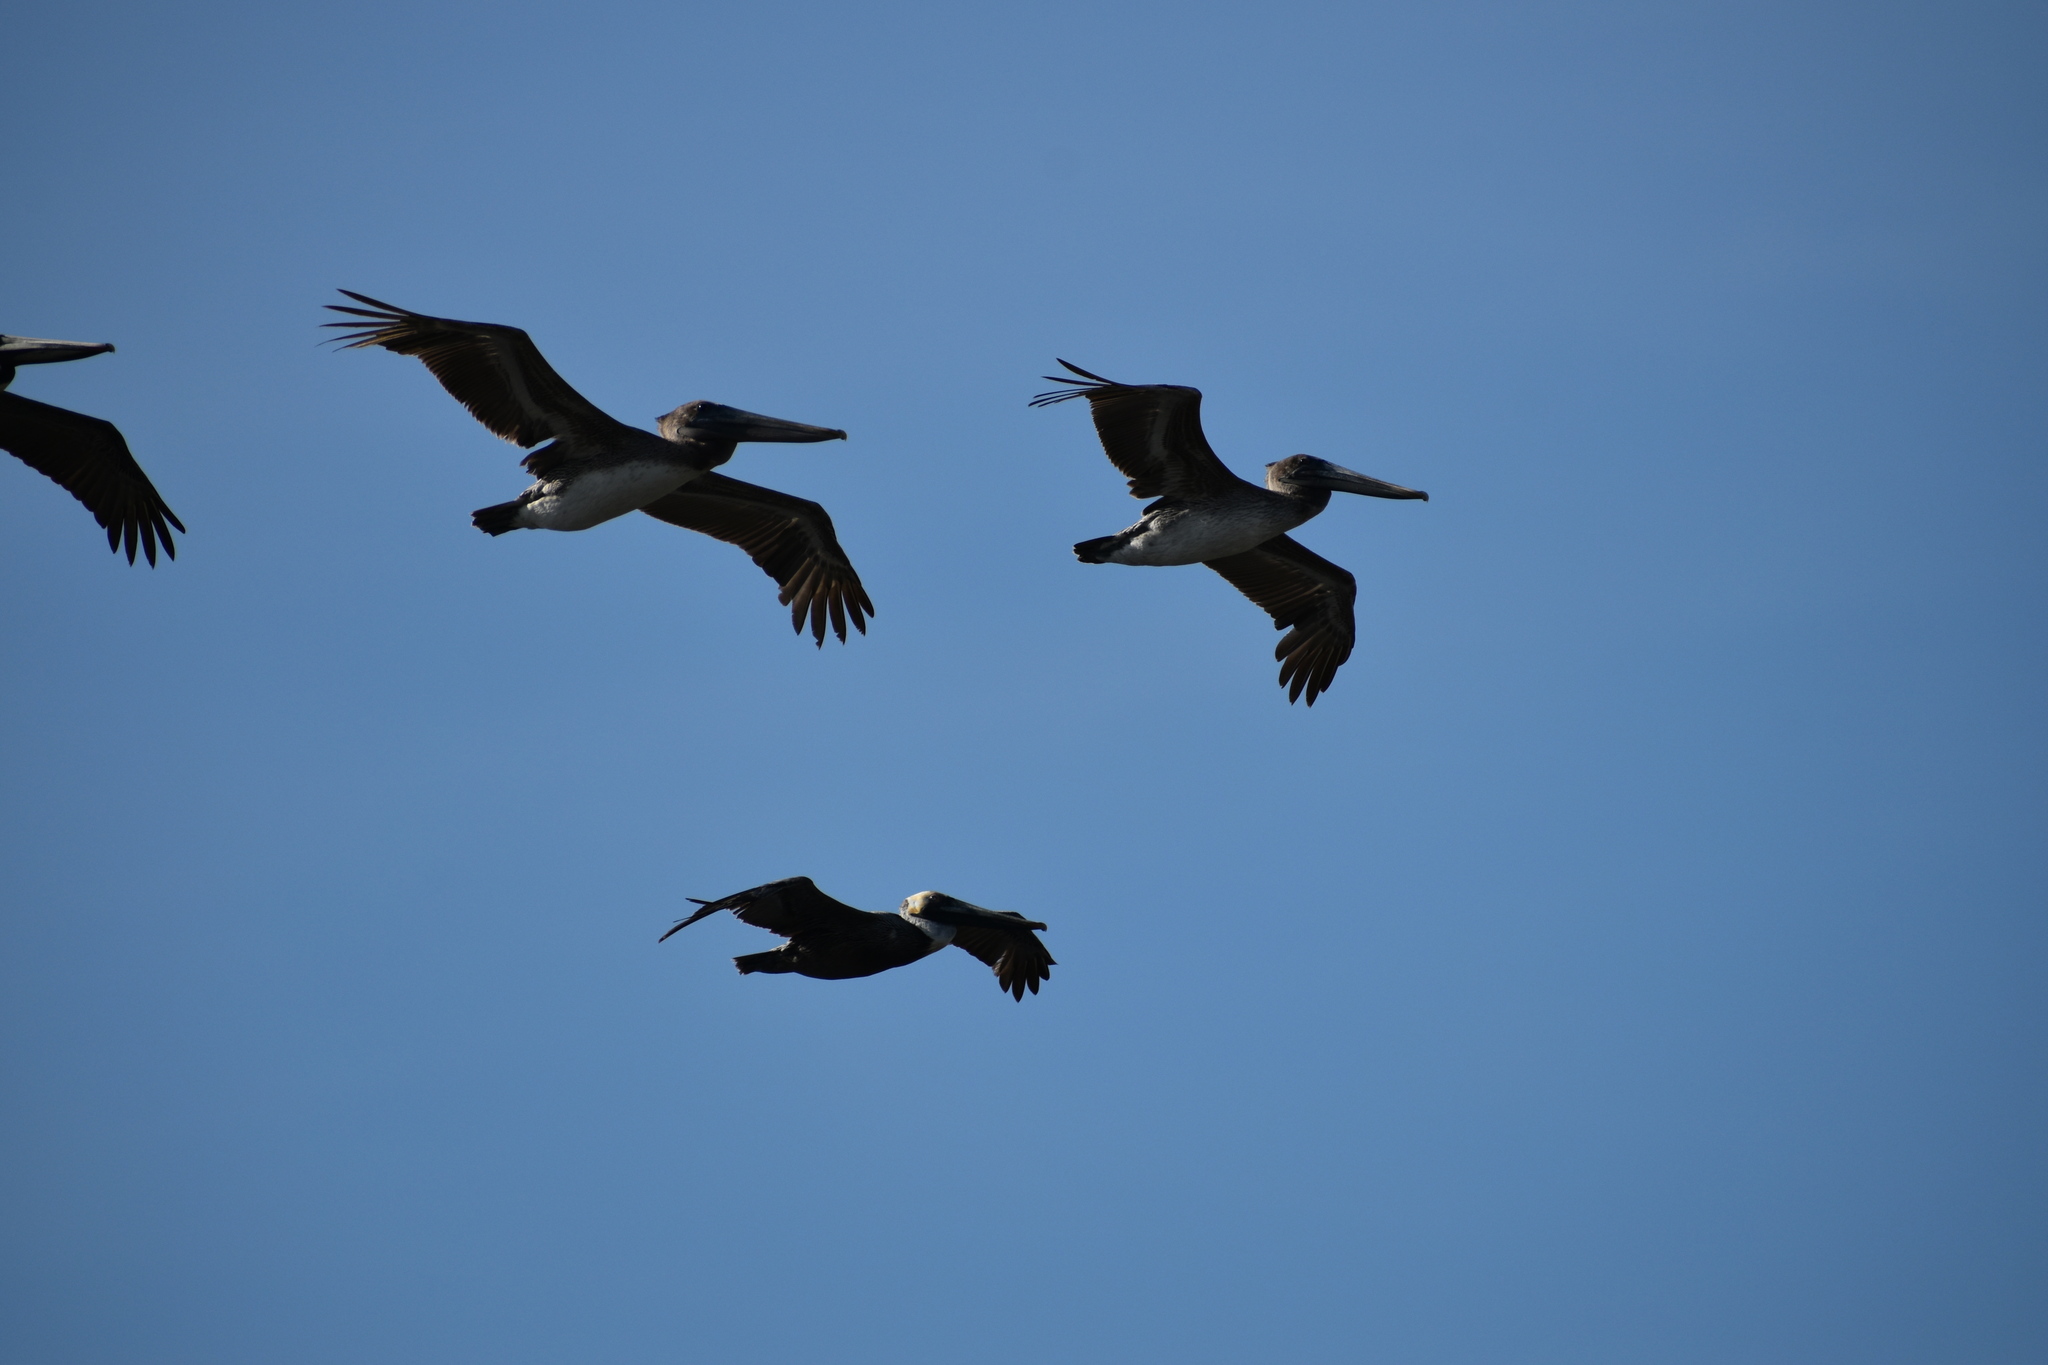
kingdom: Animalia
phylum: Chordata
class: Aves
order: Pelecaniformes
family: Pelecanidae
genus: Pelecanus
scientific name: Pelecanus occidentalis
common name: Brown pelican
